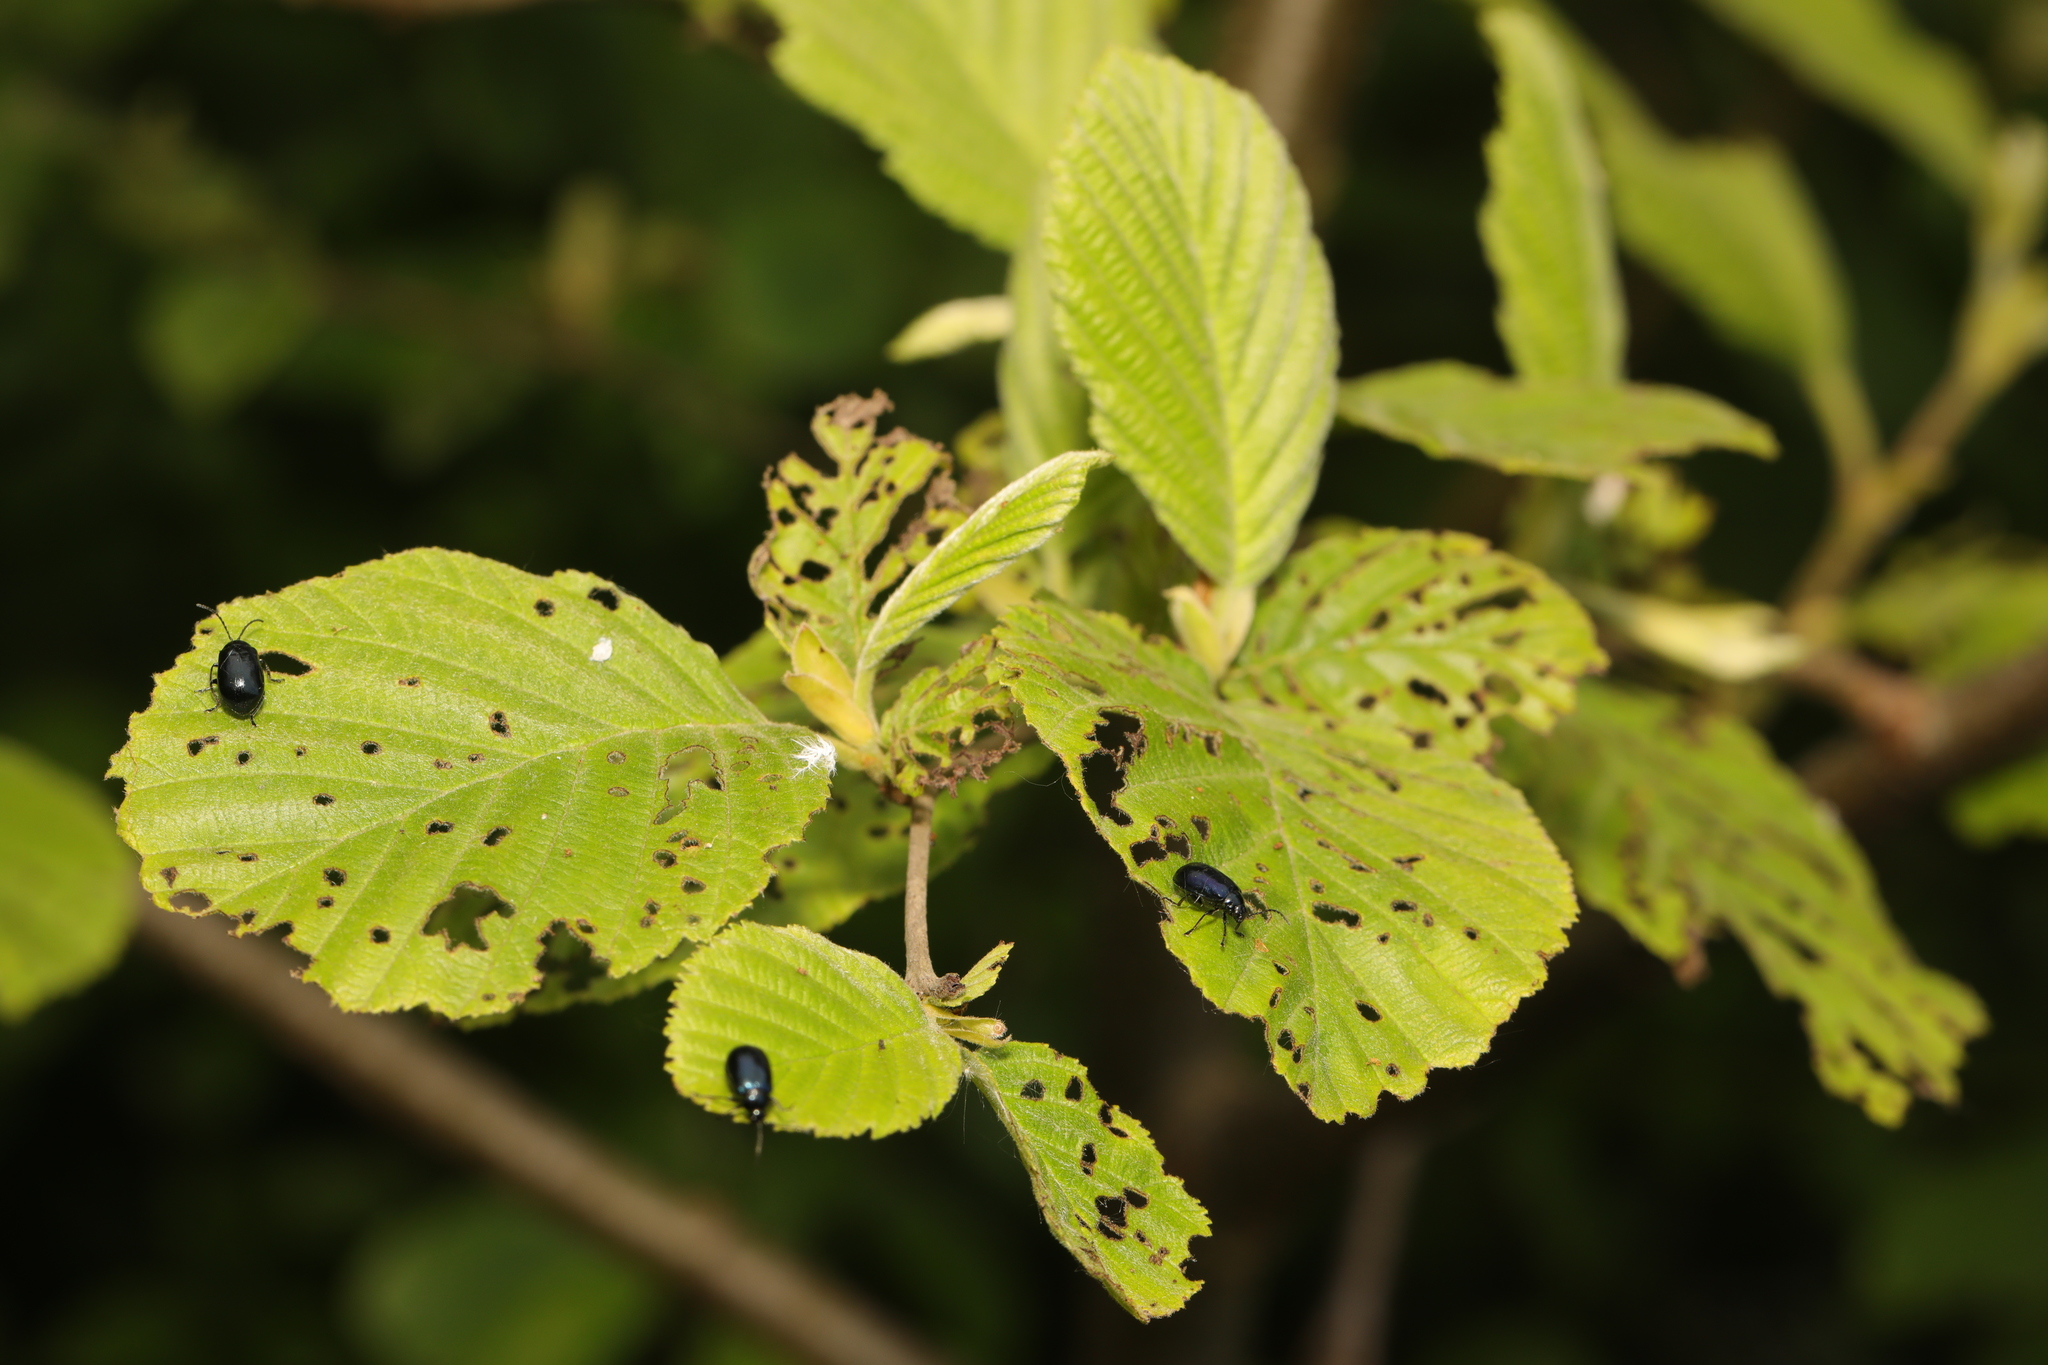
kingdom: Animalia
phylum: Arthropoda
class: Insecta
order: Coleoptera
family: Chrysomelidae
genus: Agelastica
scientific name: Agelastica alni
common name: Alder leaf beetle
